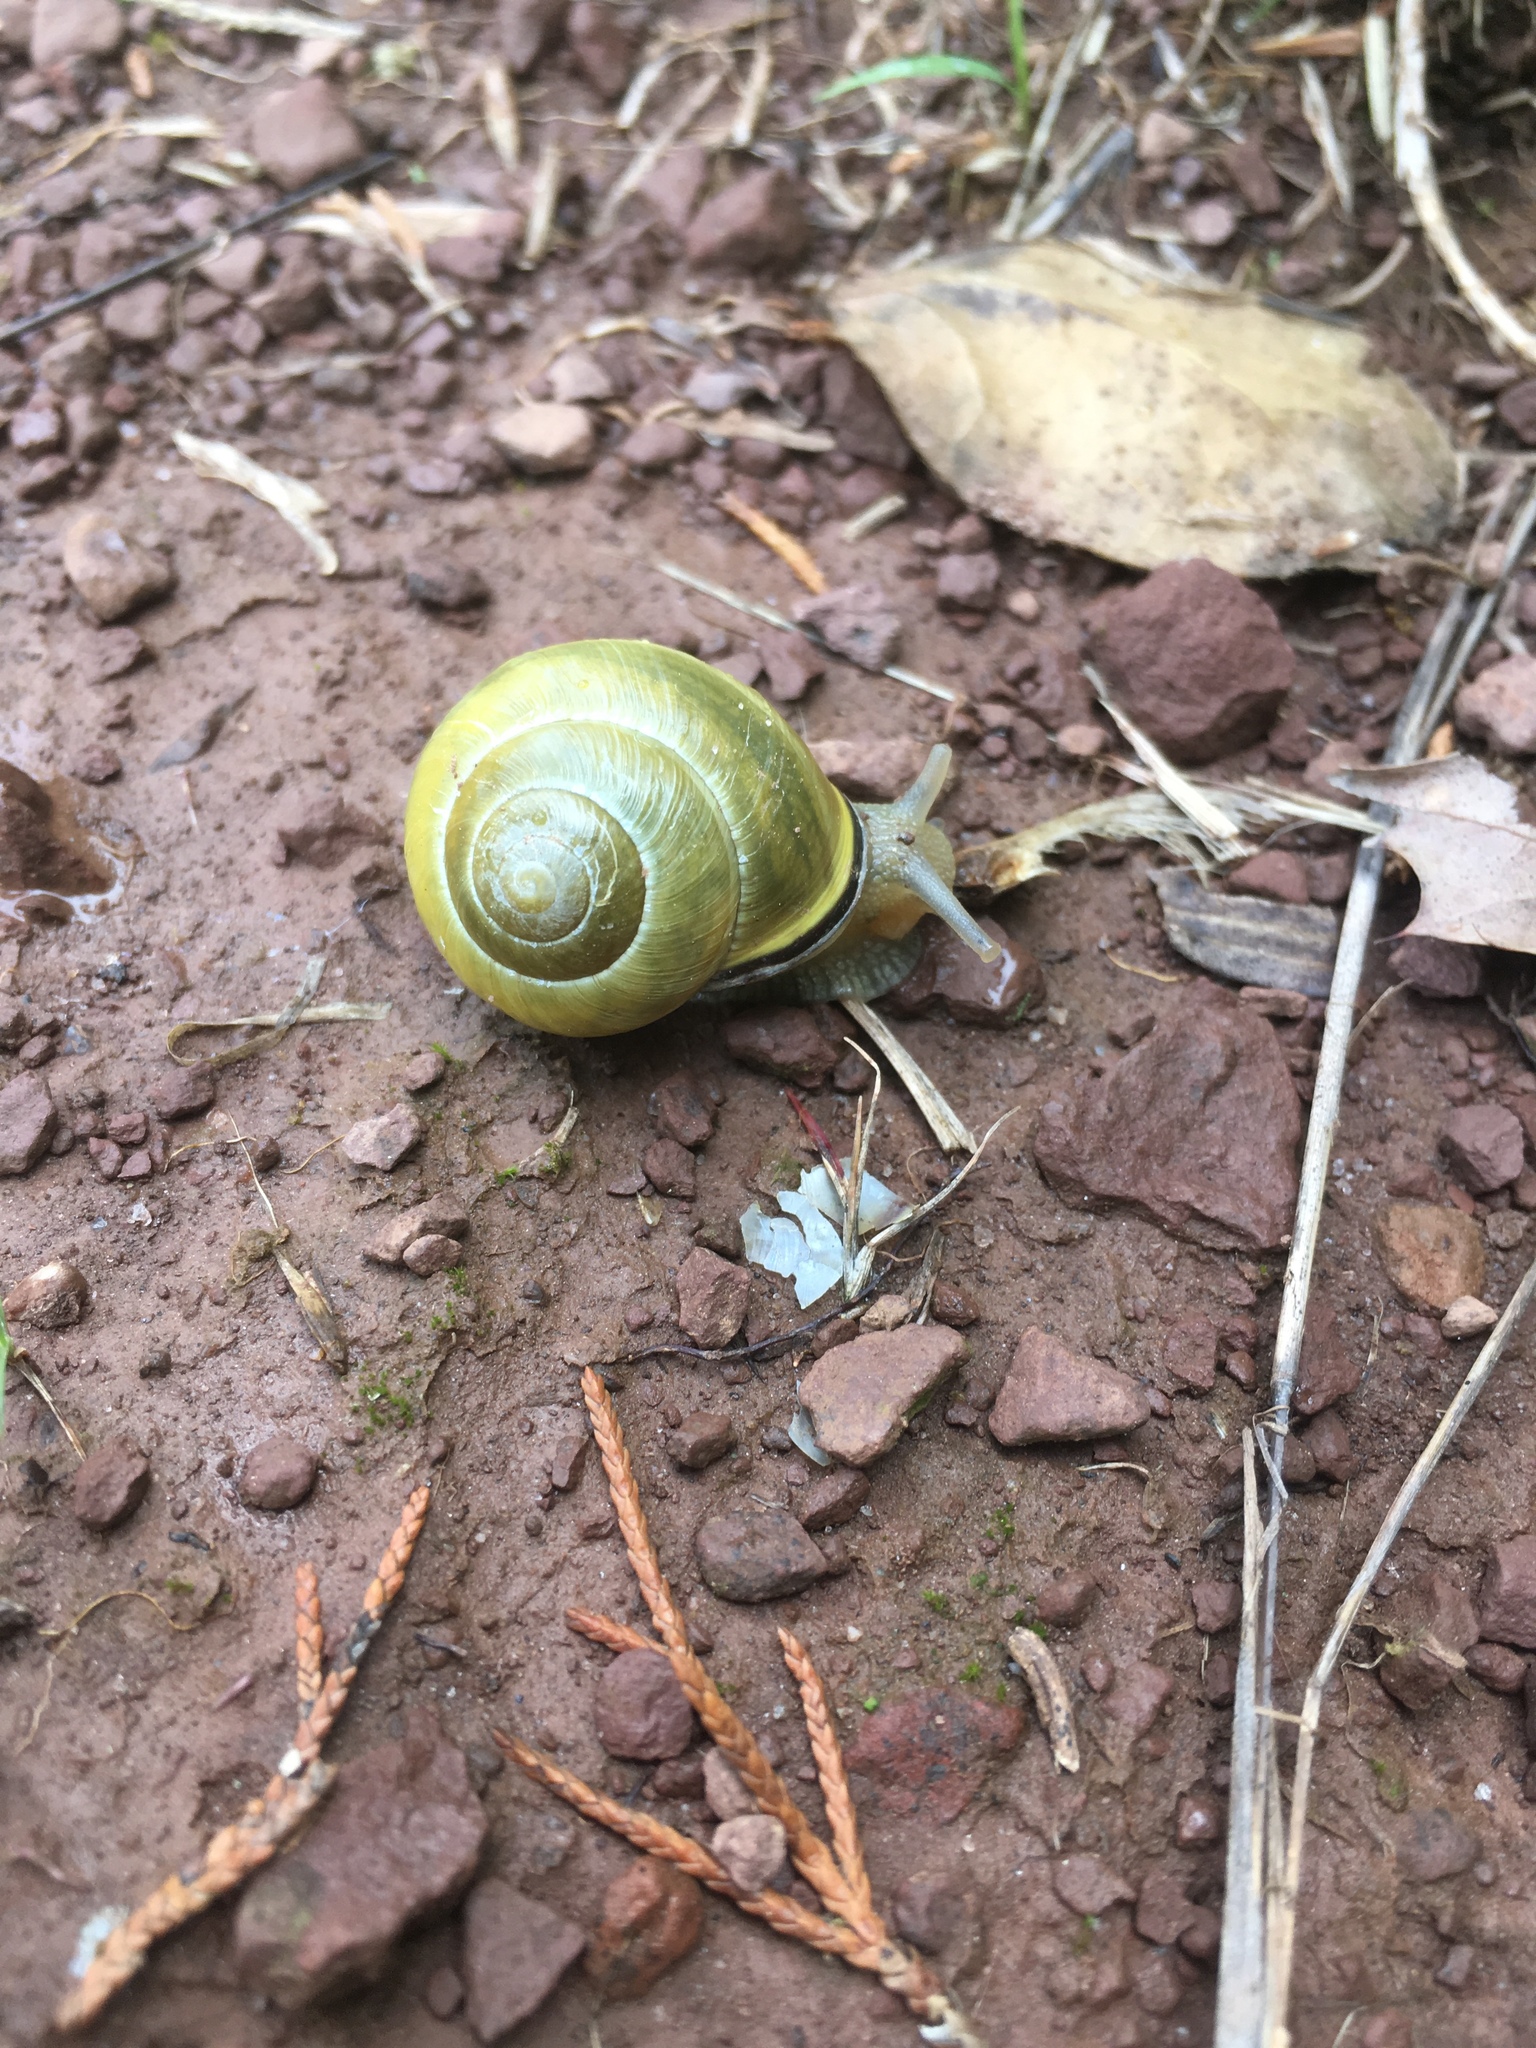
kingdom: Animalia
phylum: Mollusca
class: Gastropoda
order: Stylommatophora
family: Helicidae
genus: Cepaea
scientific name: Cepaea nemoralis
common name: Grovesnail
